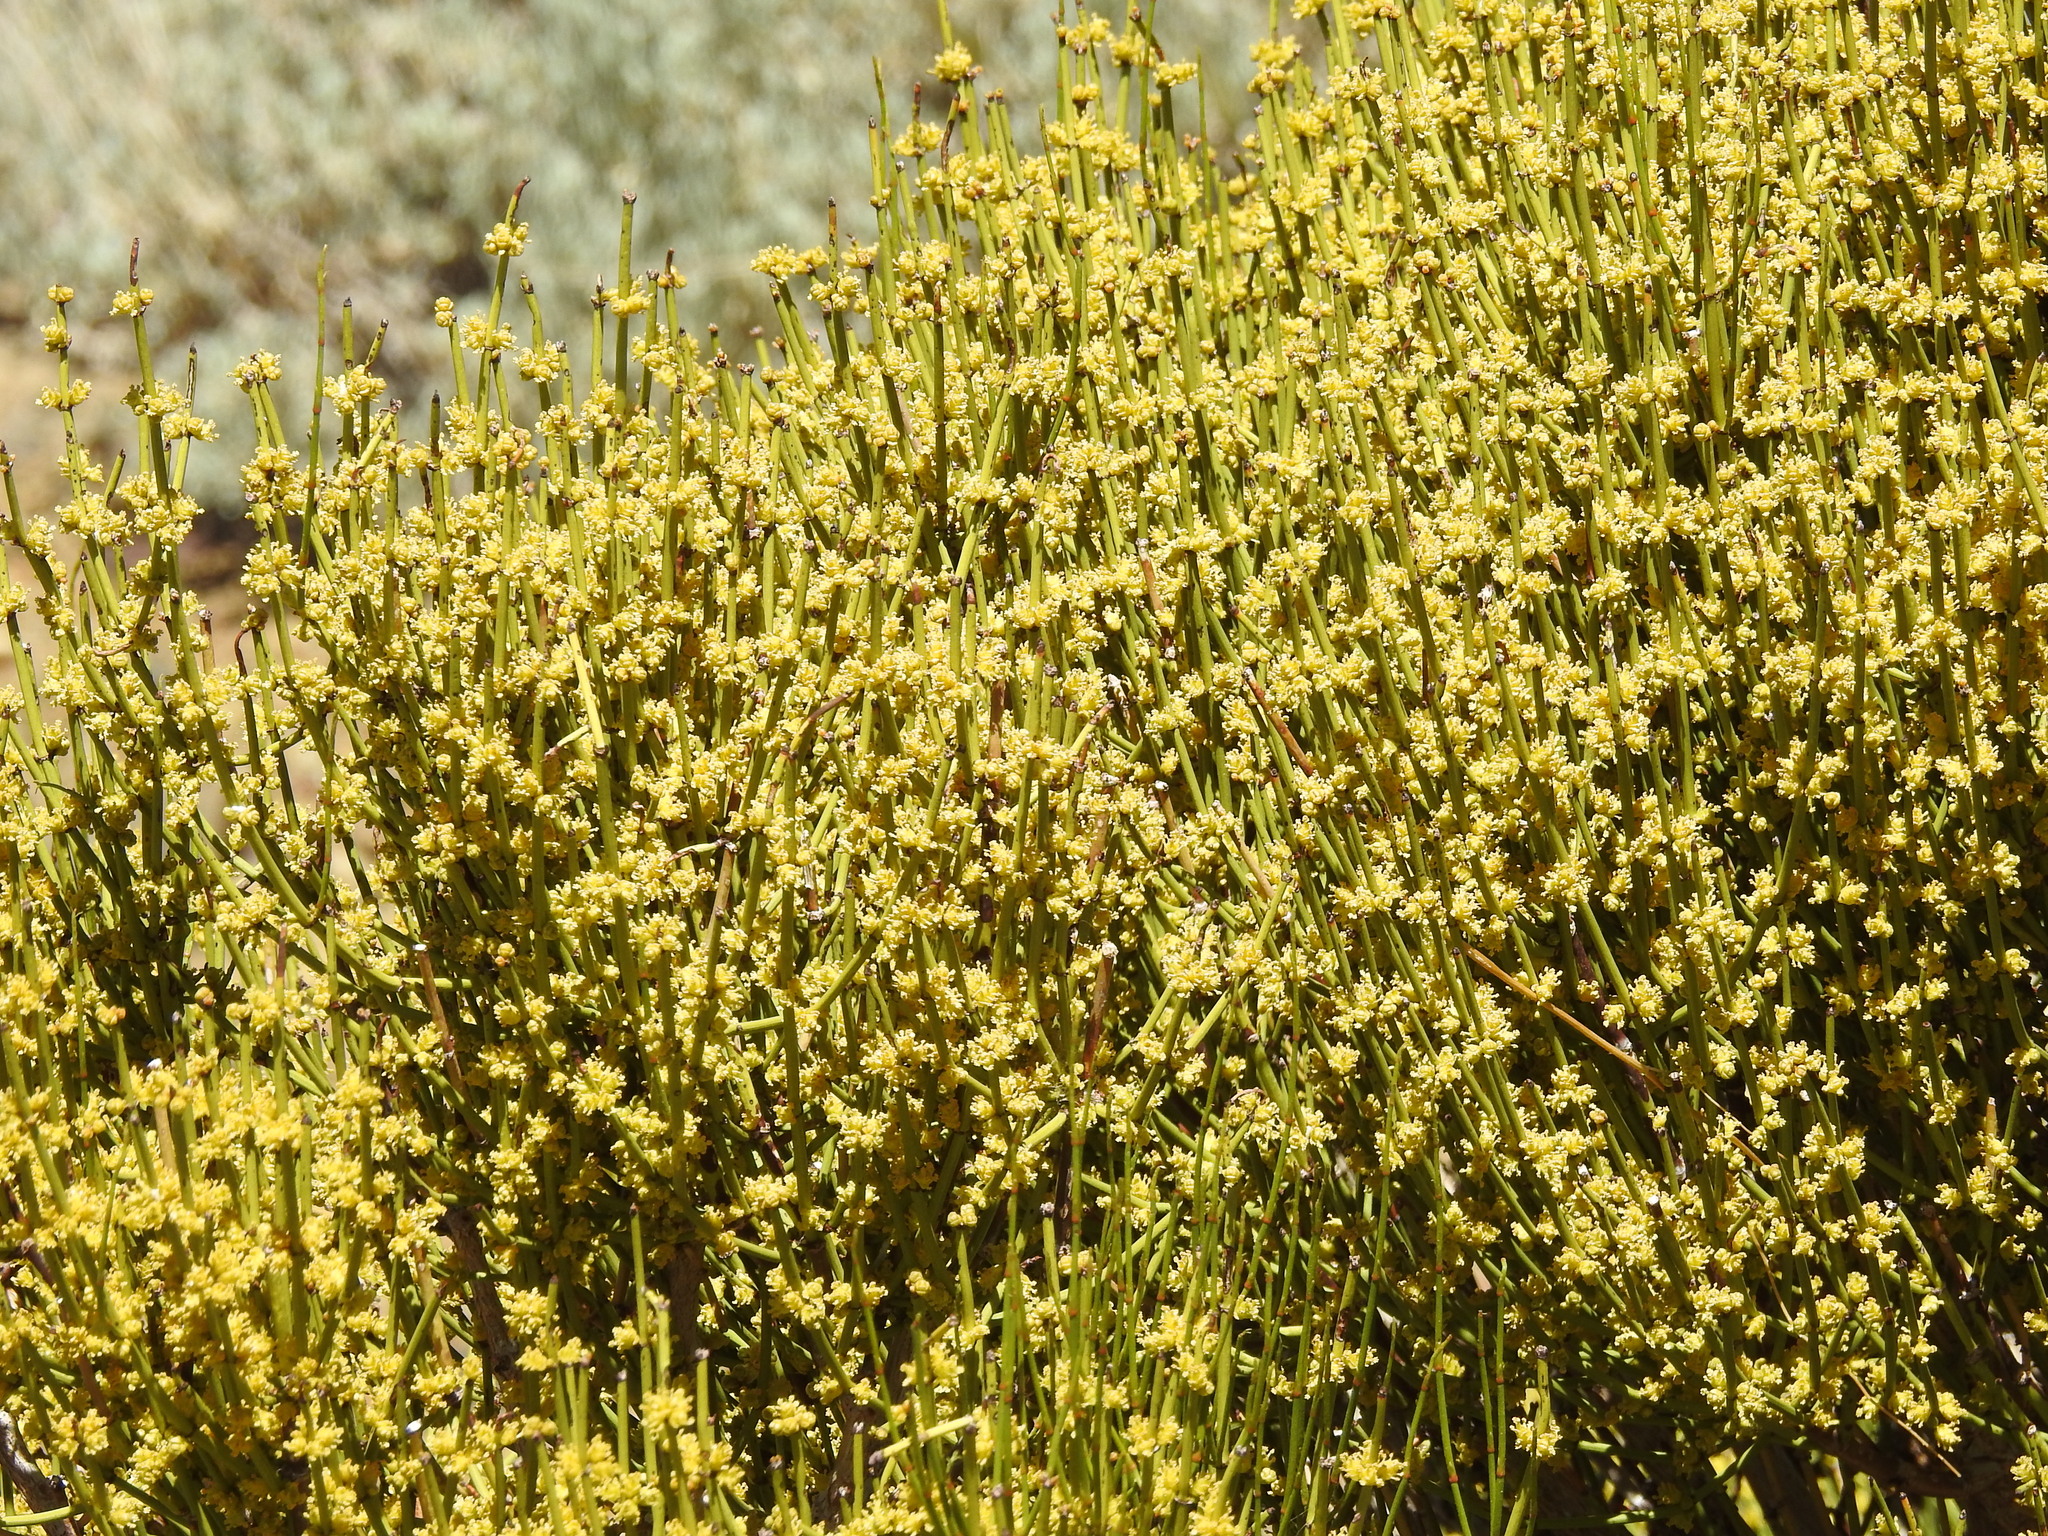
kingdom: Plantae
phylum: Tracheophyta
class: Gnetopsida
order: Ephedrales
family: Ephedraceae
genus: Ephedra
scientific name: Ephedra viridis
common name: Green ephedra
